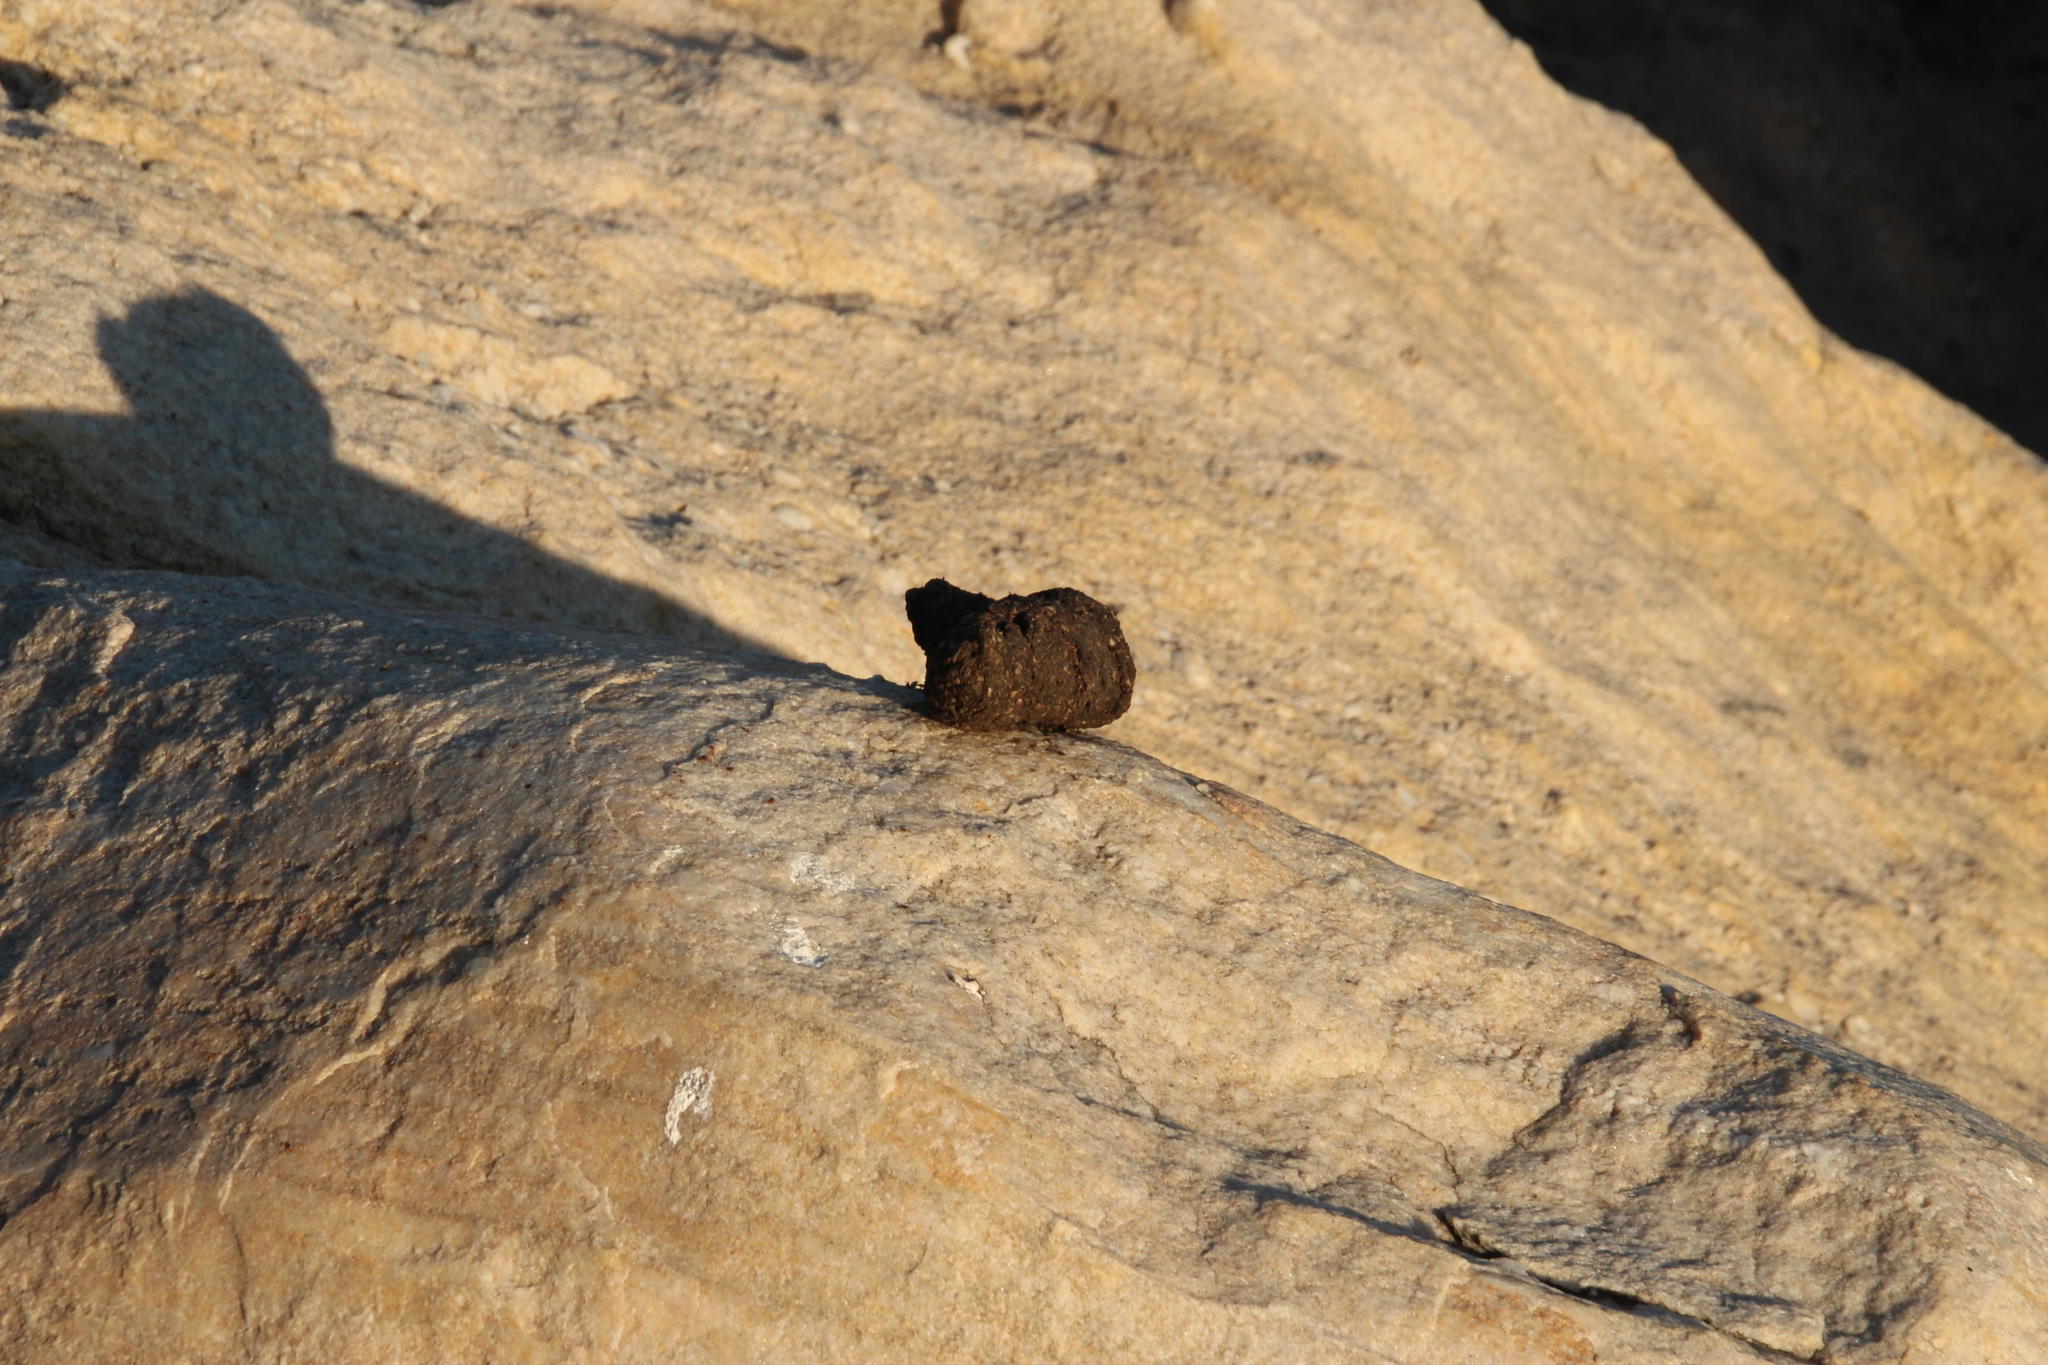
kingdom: Animalia
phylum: Chordata
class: Mammalia
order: Primates
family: Cercopithecidae
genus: Papio
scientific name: Papio ursinus
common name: Chacma baboon
